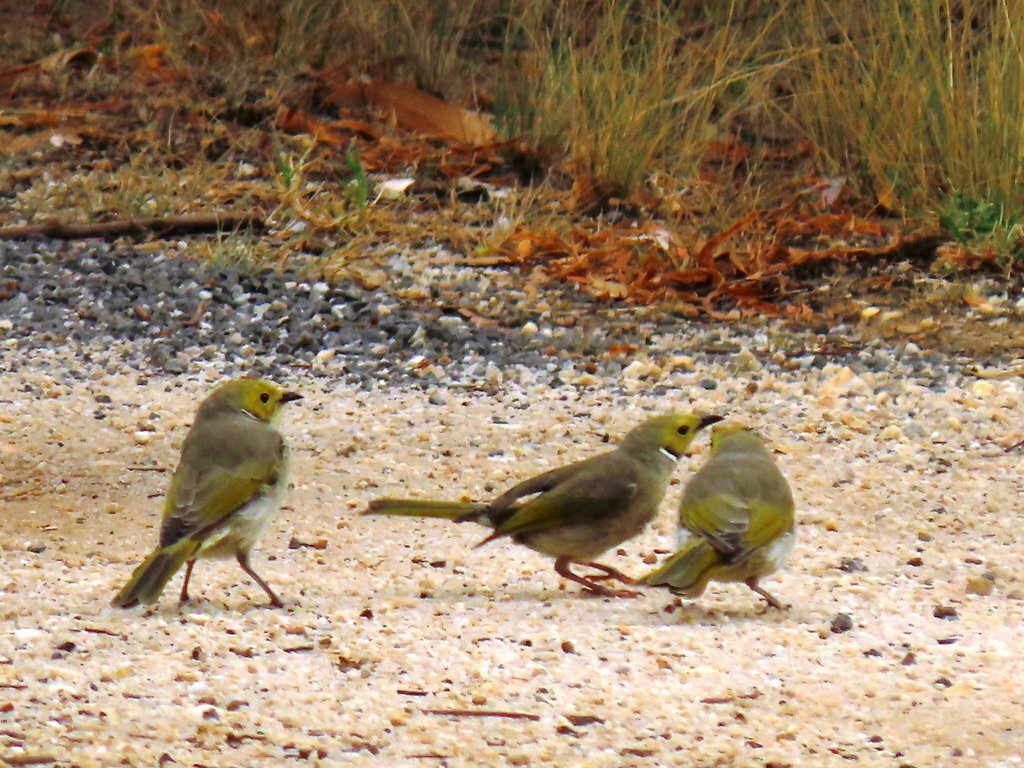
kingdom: Animalia
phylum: Chordata
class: Aves
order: Passeriformes
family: Meliphagidae
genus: Ptilotula
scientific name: Ptilotula penicillata
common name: White-plumed honeyeater
